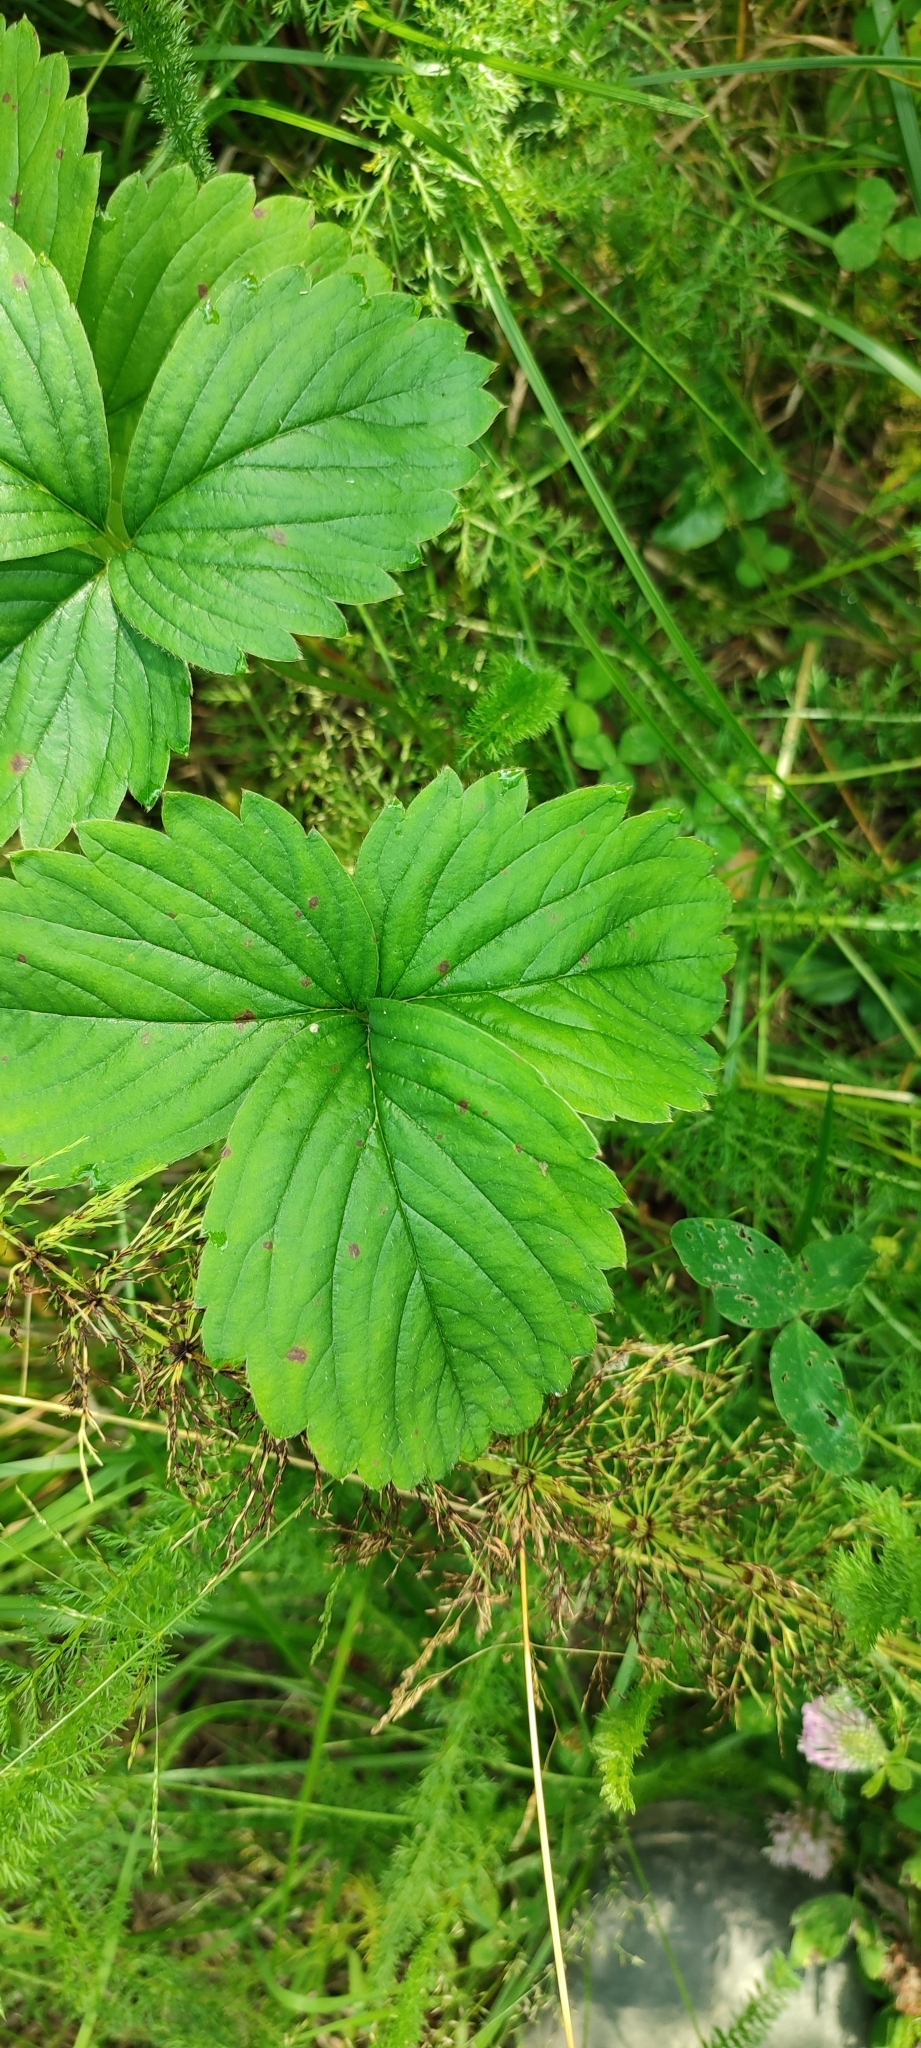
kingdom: Plantae
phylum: Tracheophyta
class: Magnoliopsida
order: Rosales
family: Rosaceae
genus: Fragaria
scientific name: Fragaria ananassa
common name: Garden strawberry
